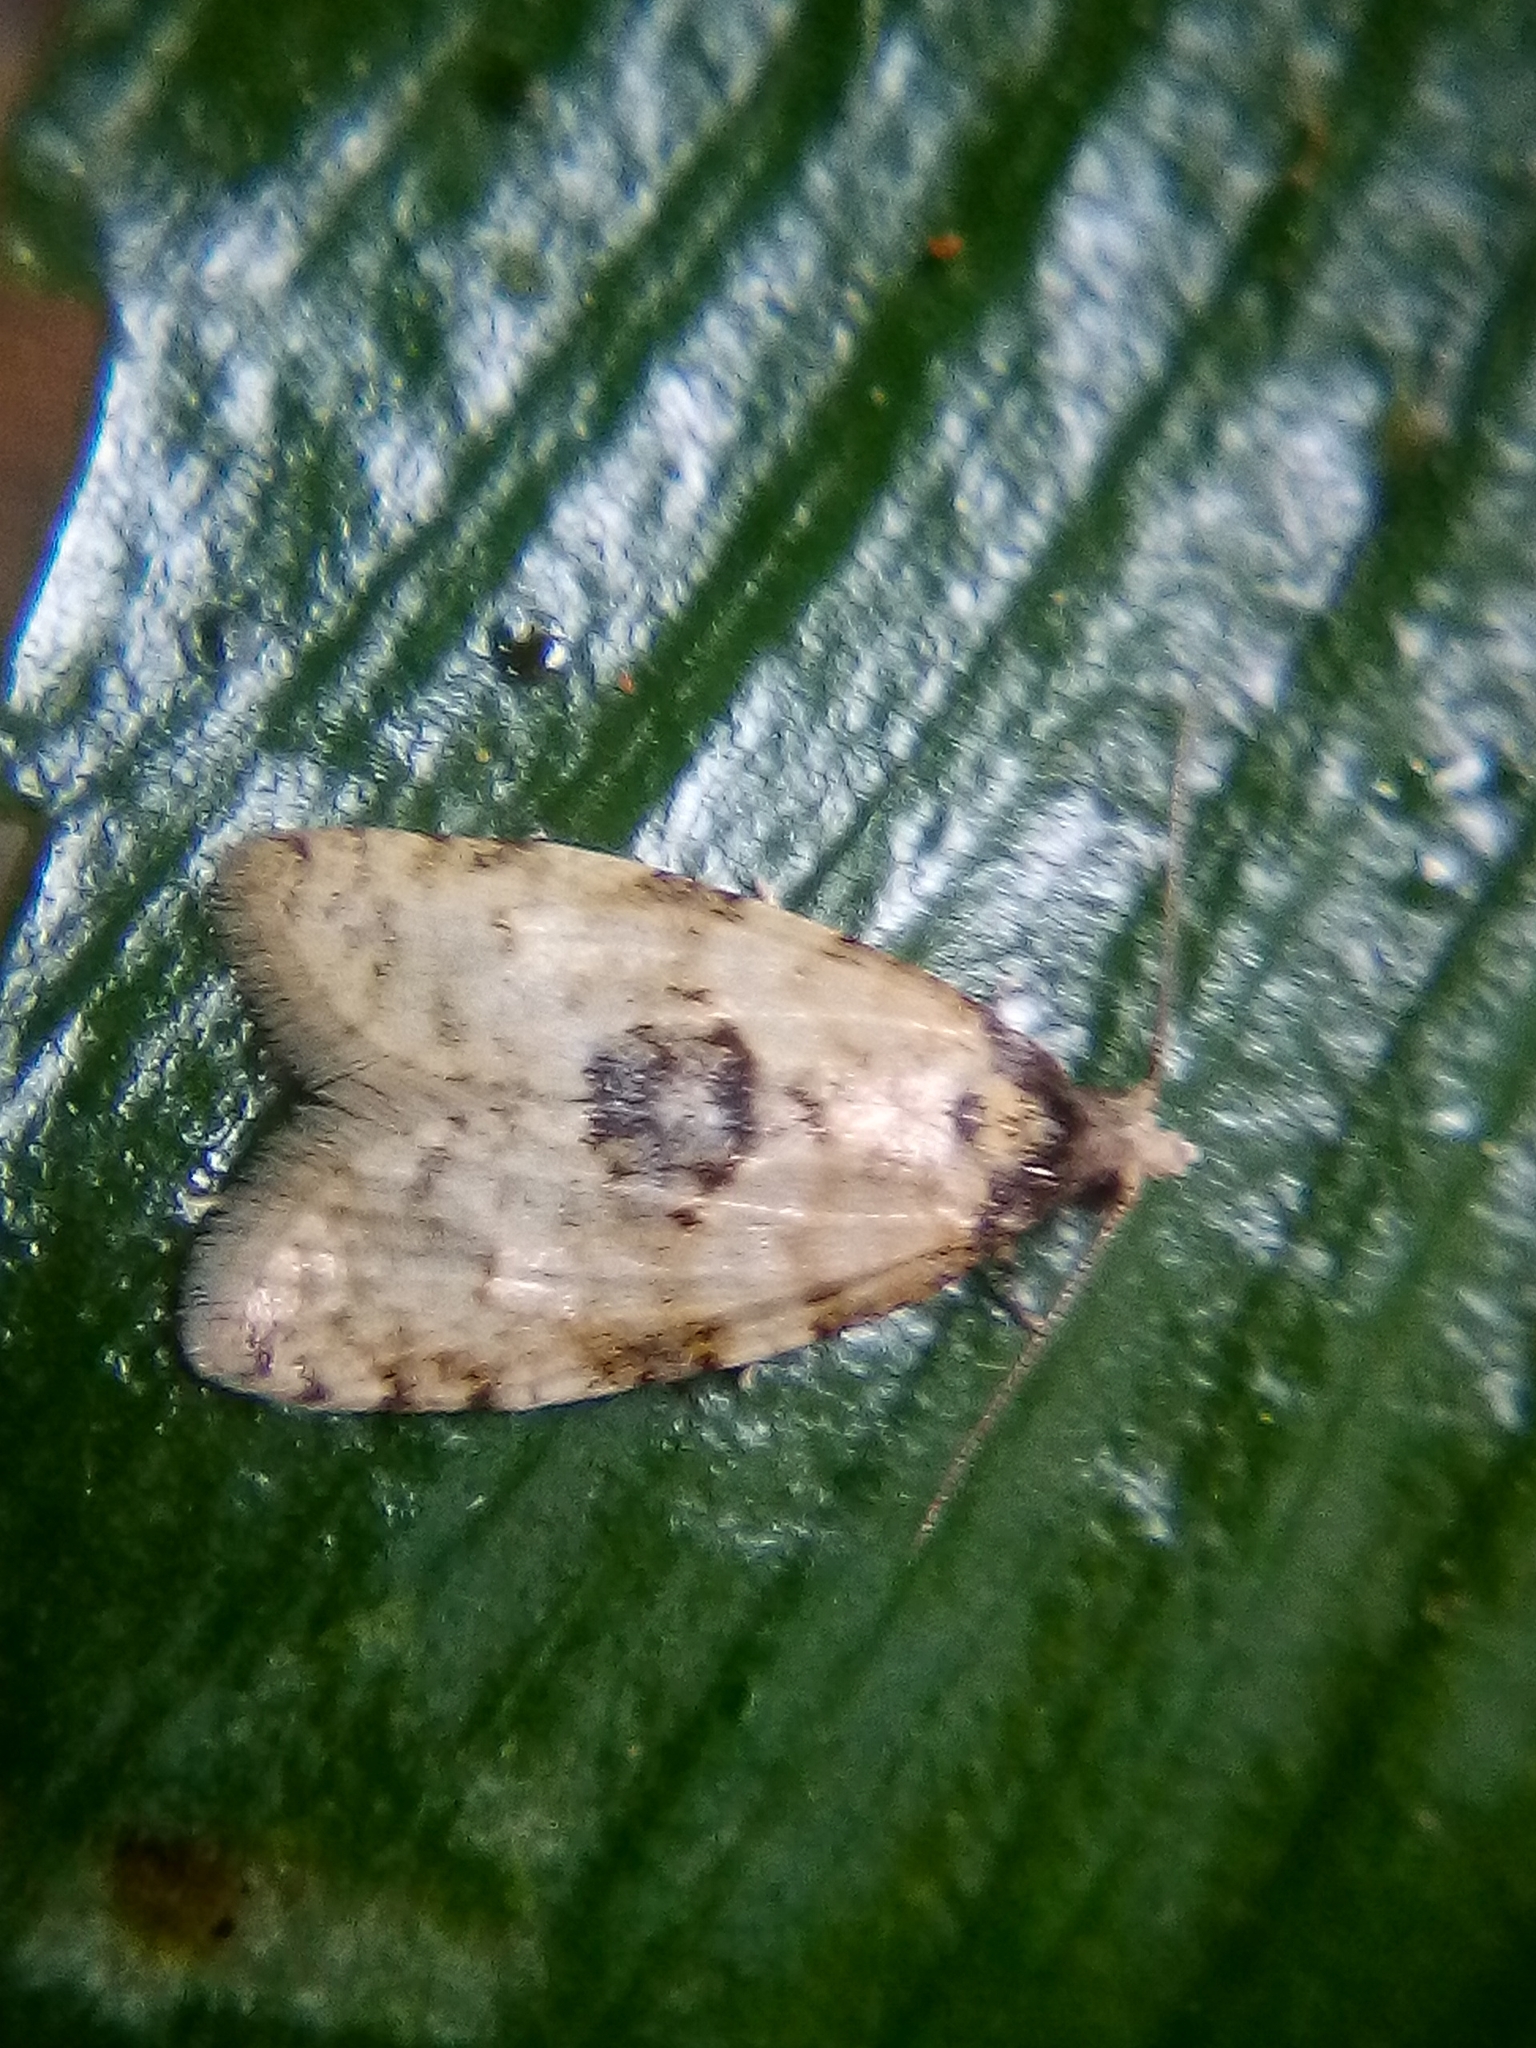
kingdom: Animalia
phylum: Arthropoda
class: Insecta
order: Lepidoptera
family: Tortricidae
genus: Dipterina
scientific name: Dipterina imbriferana
